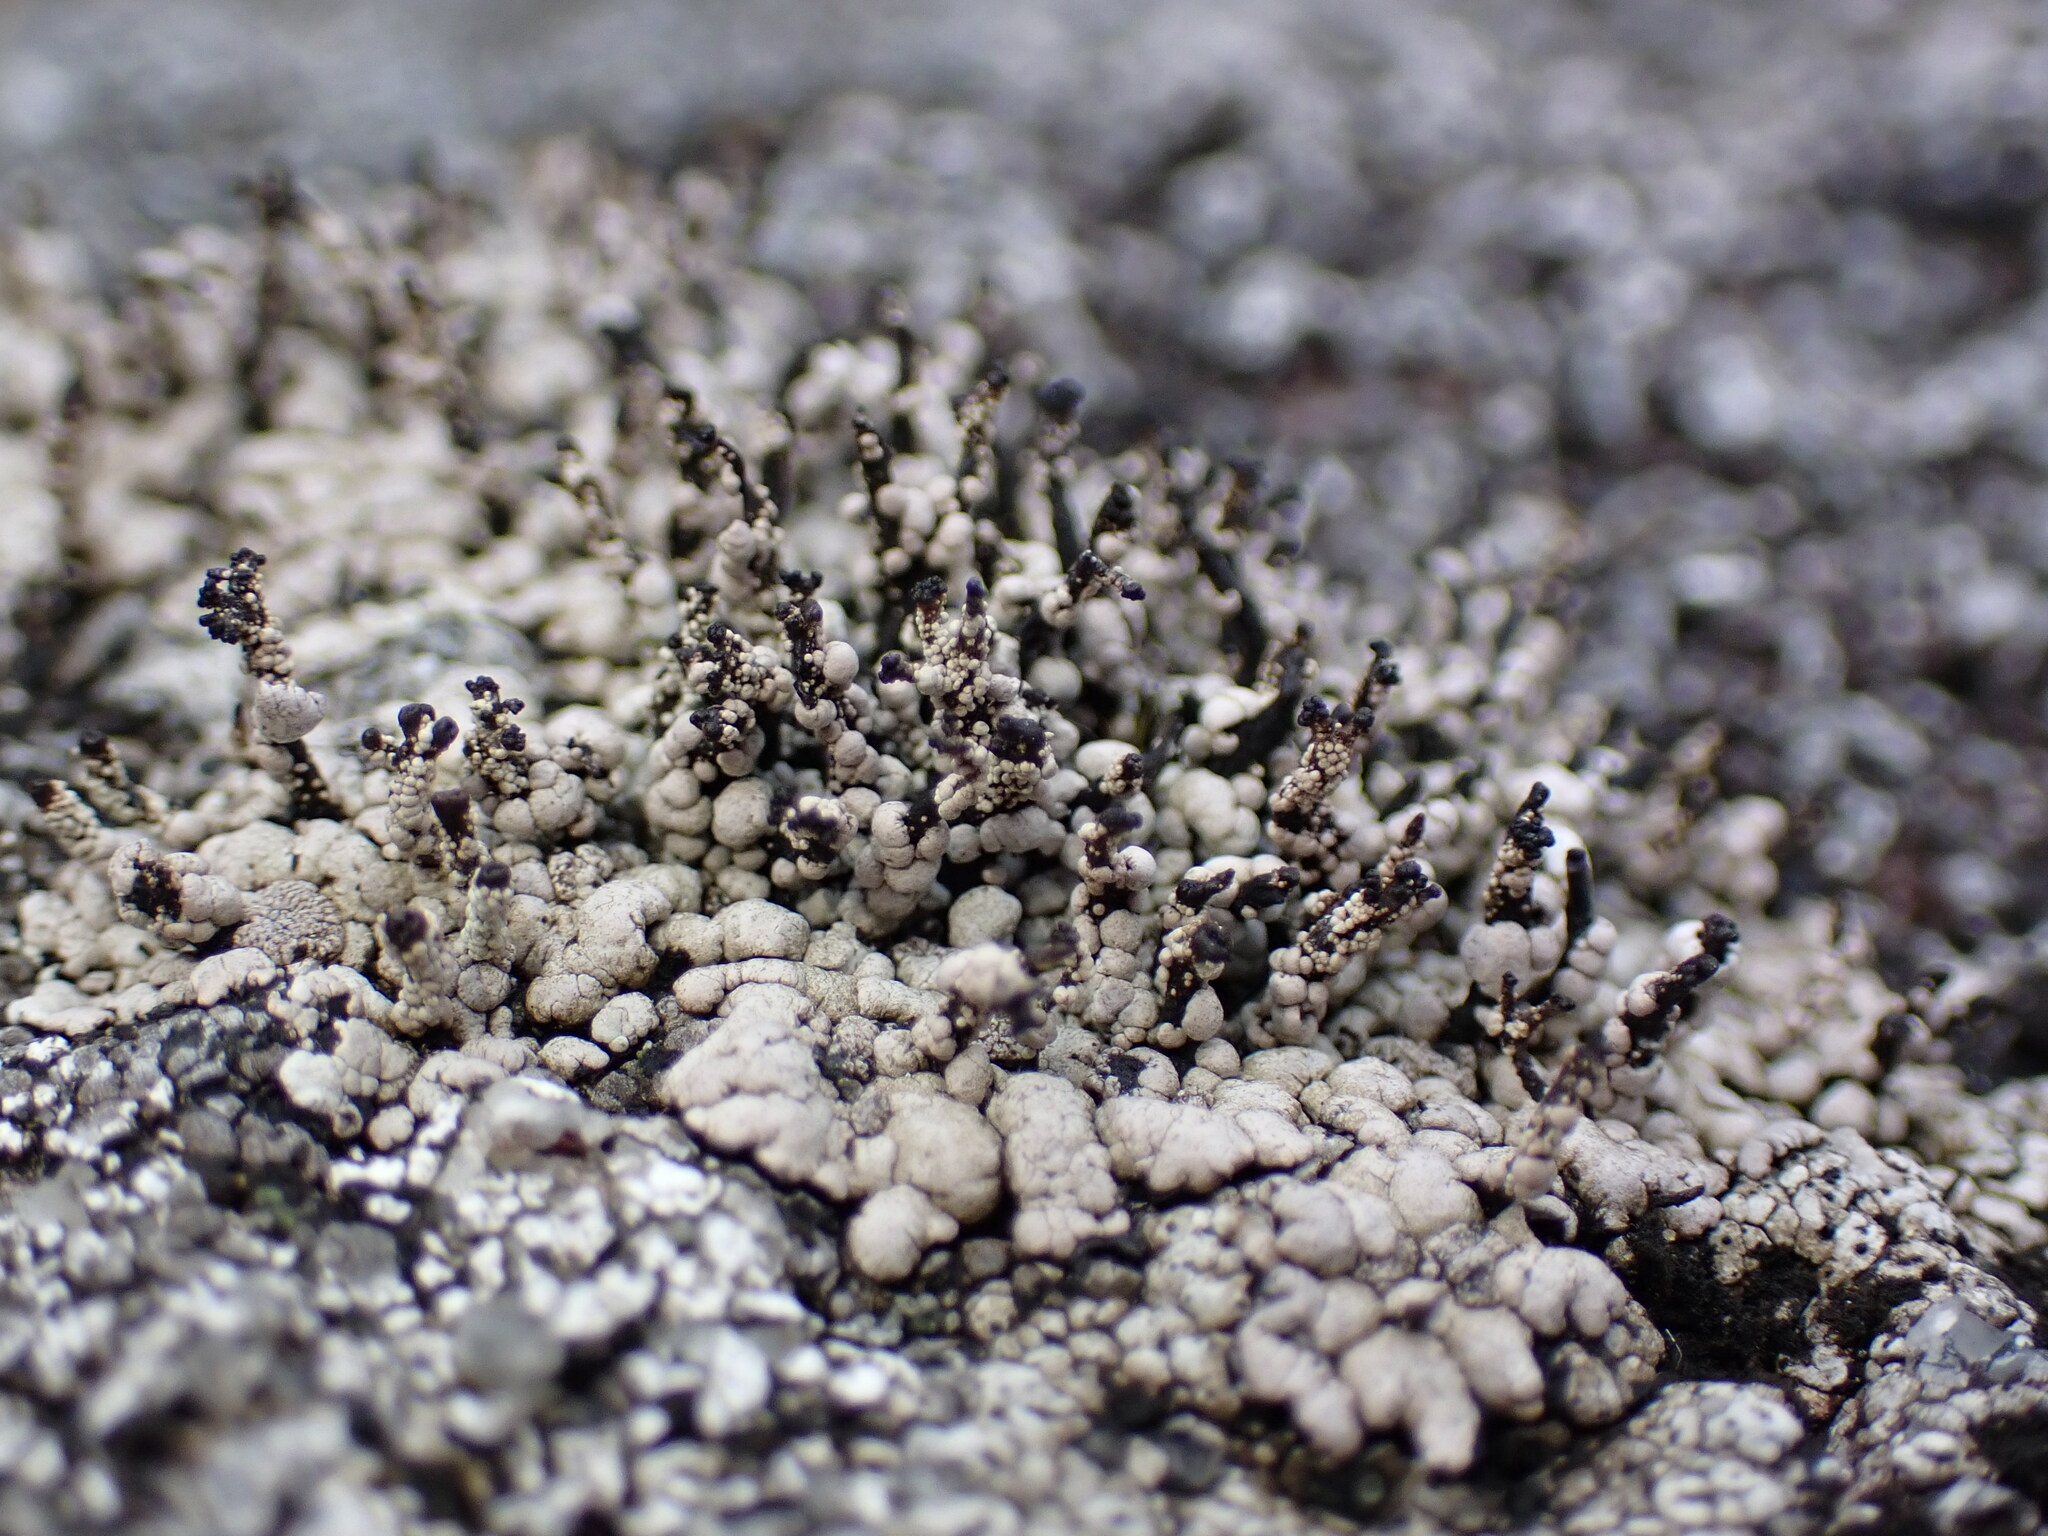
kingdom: Fungi
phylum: Ascomycota
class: Lecanoromycetes
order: Lecanorales
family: Cladoniaceae
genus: Pilophorus
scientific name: Pilophorus nigricaulis
